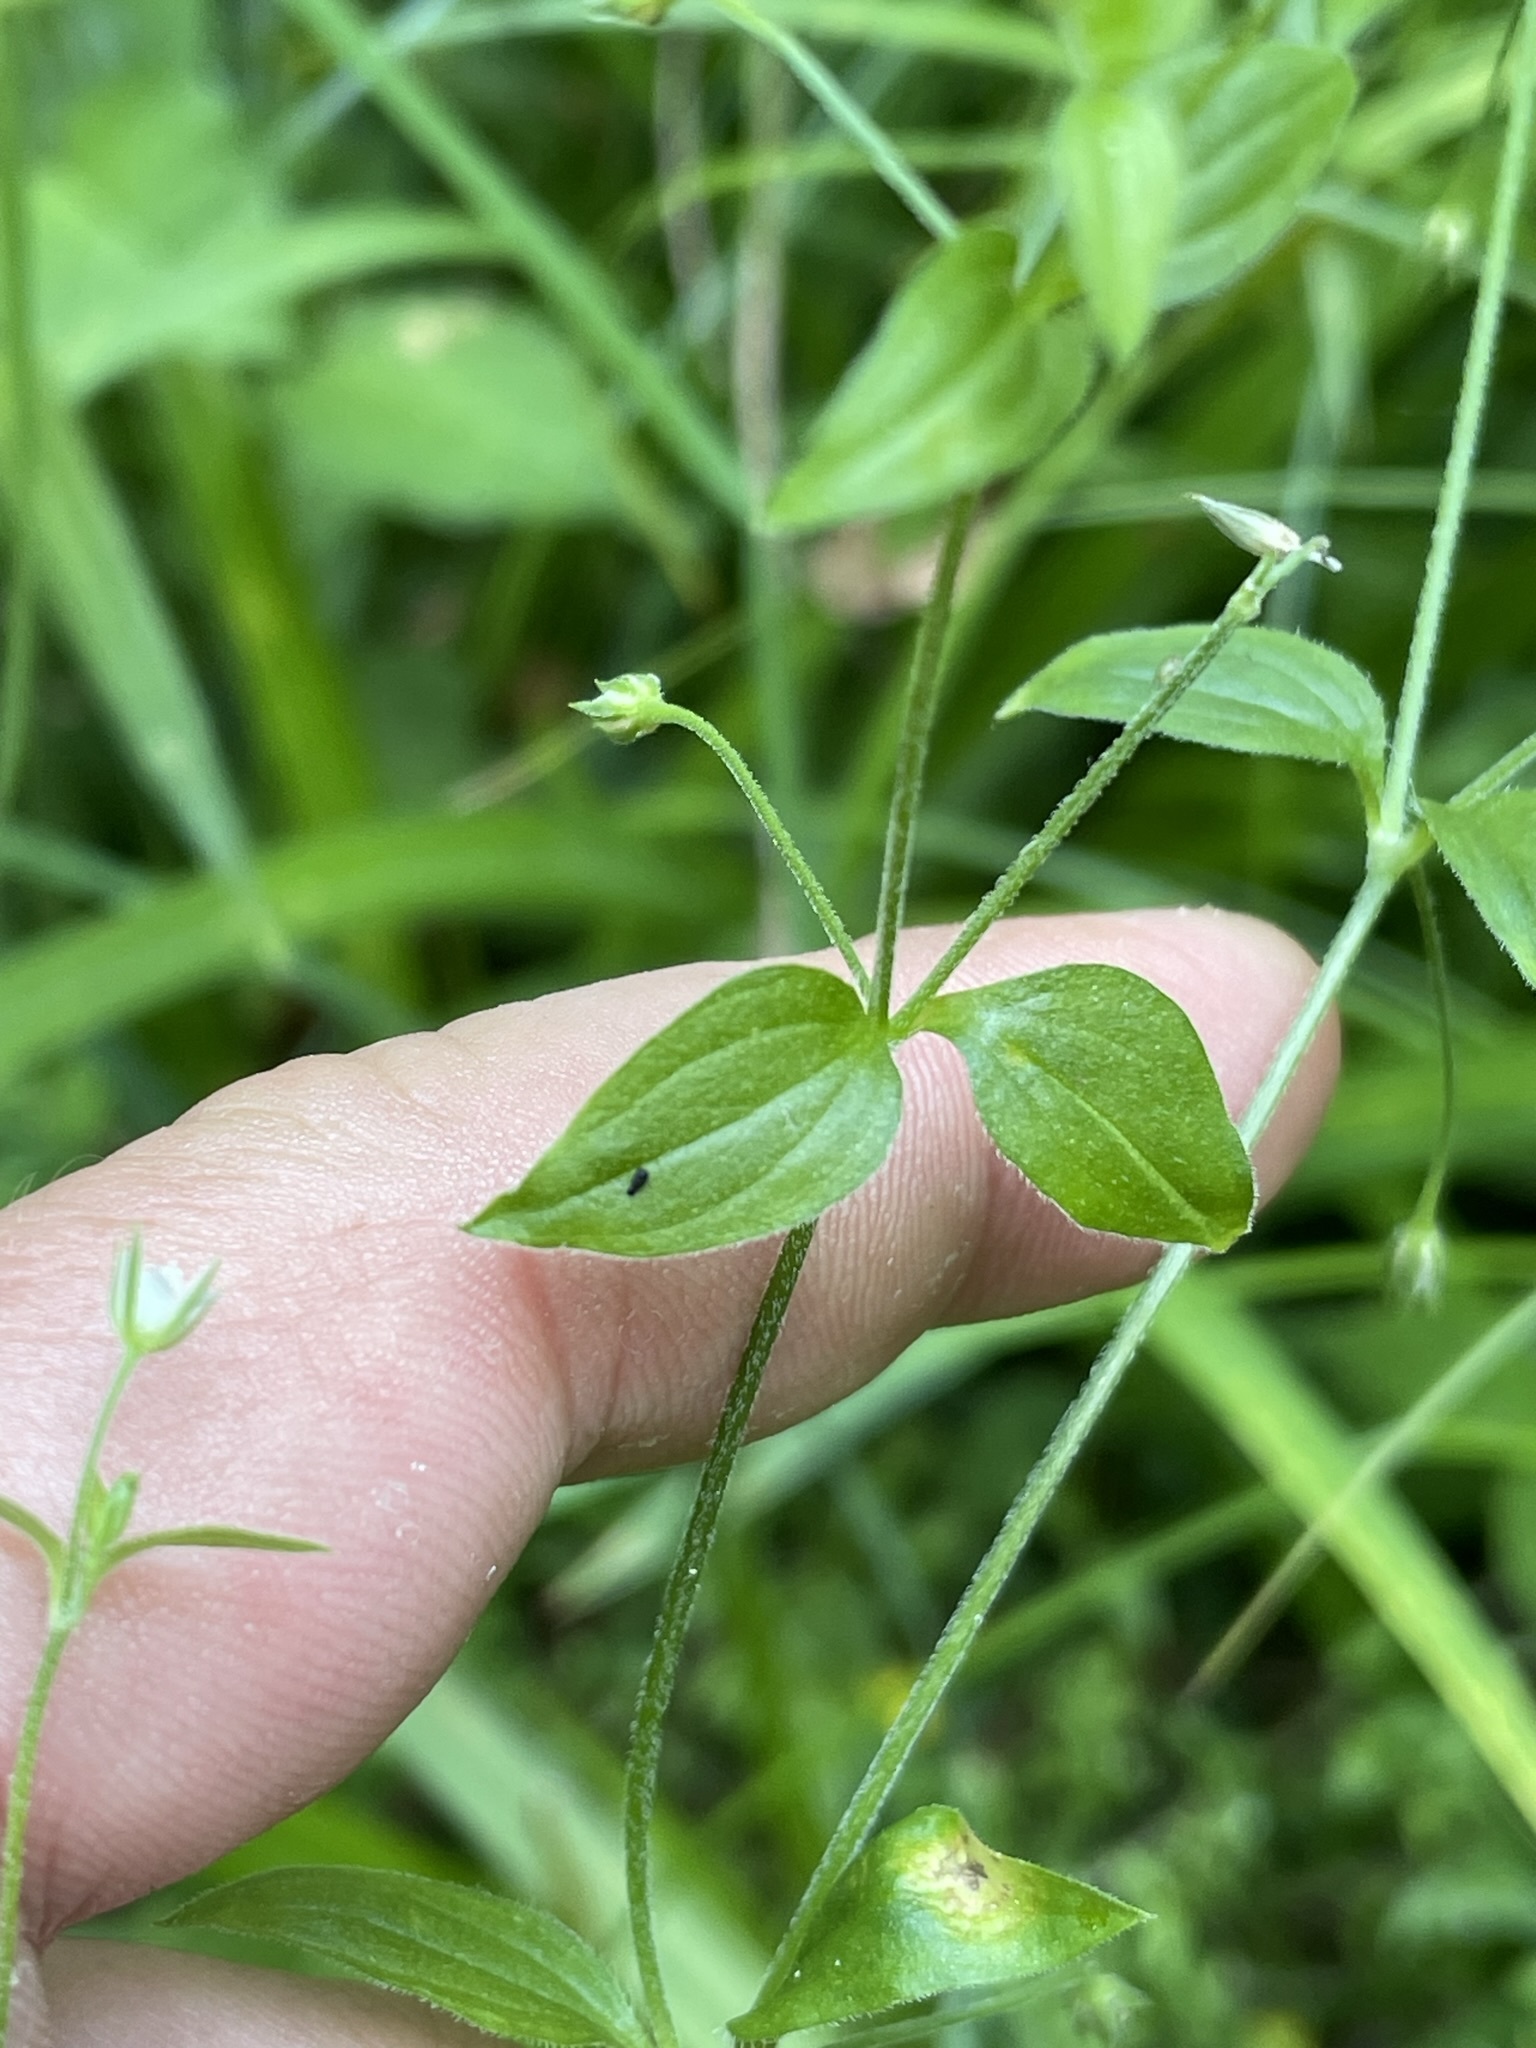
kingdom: Plantae
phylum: Tracheophyta
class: Magnoliopsida
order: Caryophyllales
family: Caryophyllaceae
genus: Moehringia
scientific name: Moehringia trinervia
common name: Three-nerved sandwort
